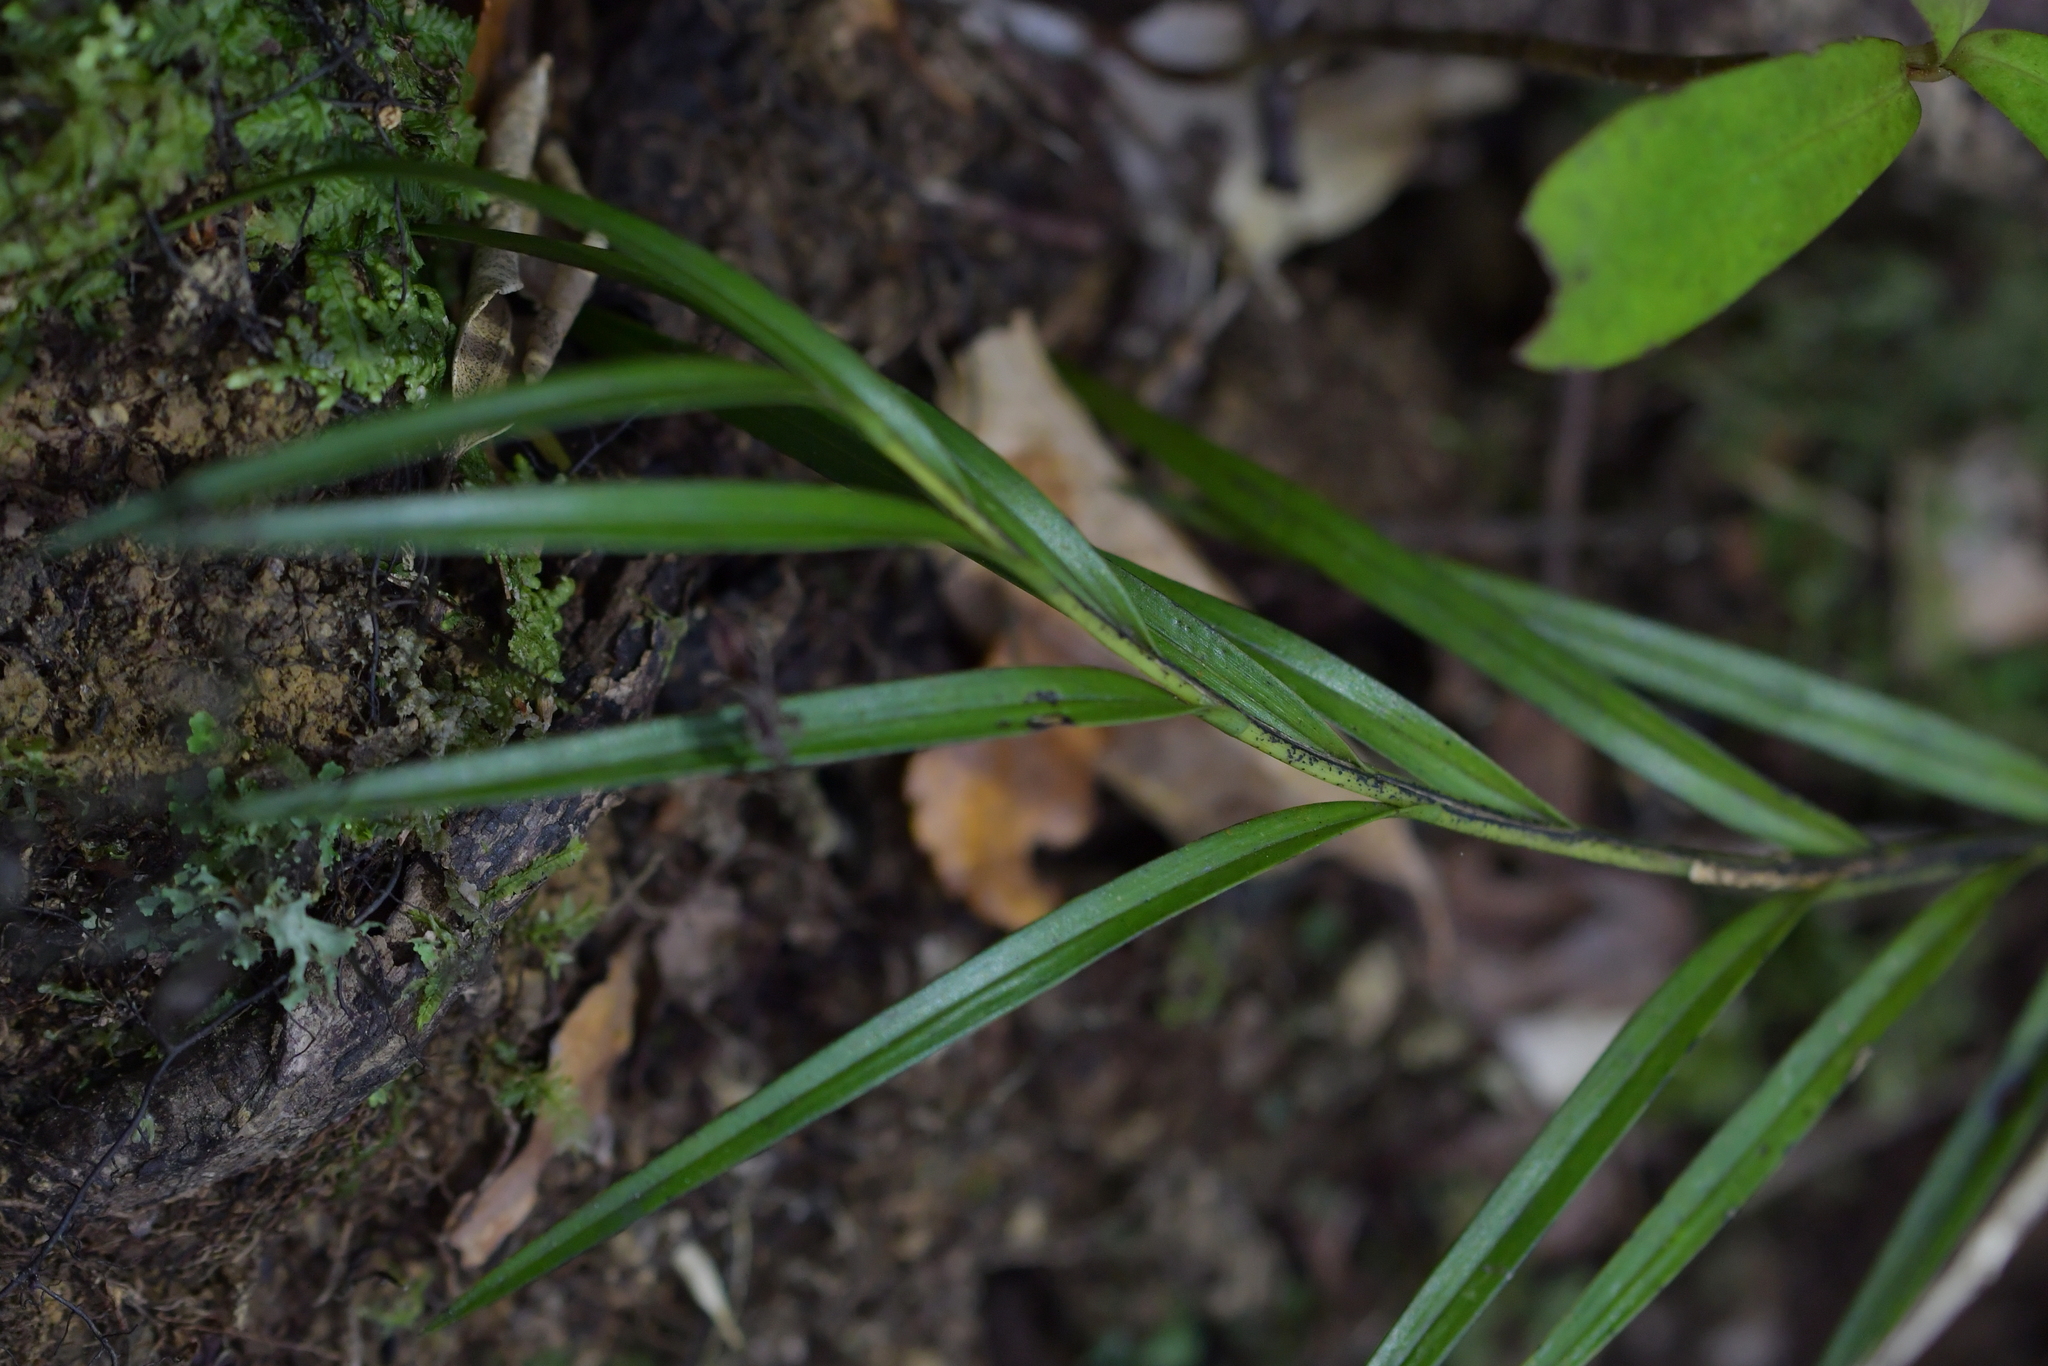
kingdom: Plantae
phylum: Tracheophyta
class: Liliopsida
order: Asparagales
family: Orchidaceae
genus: Dendrobium
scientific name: Dendrobium cunninghamii
